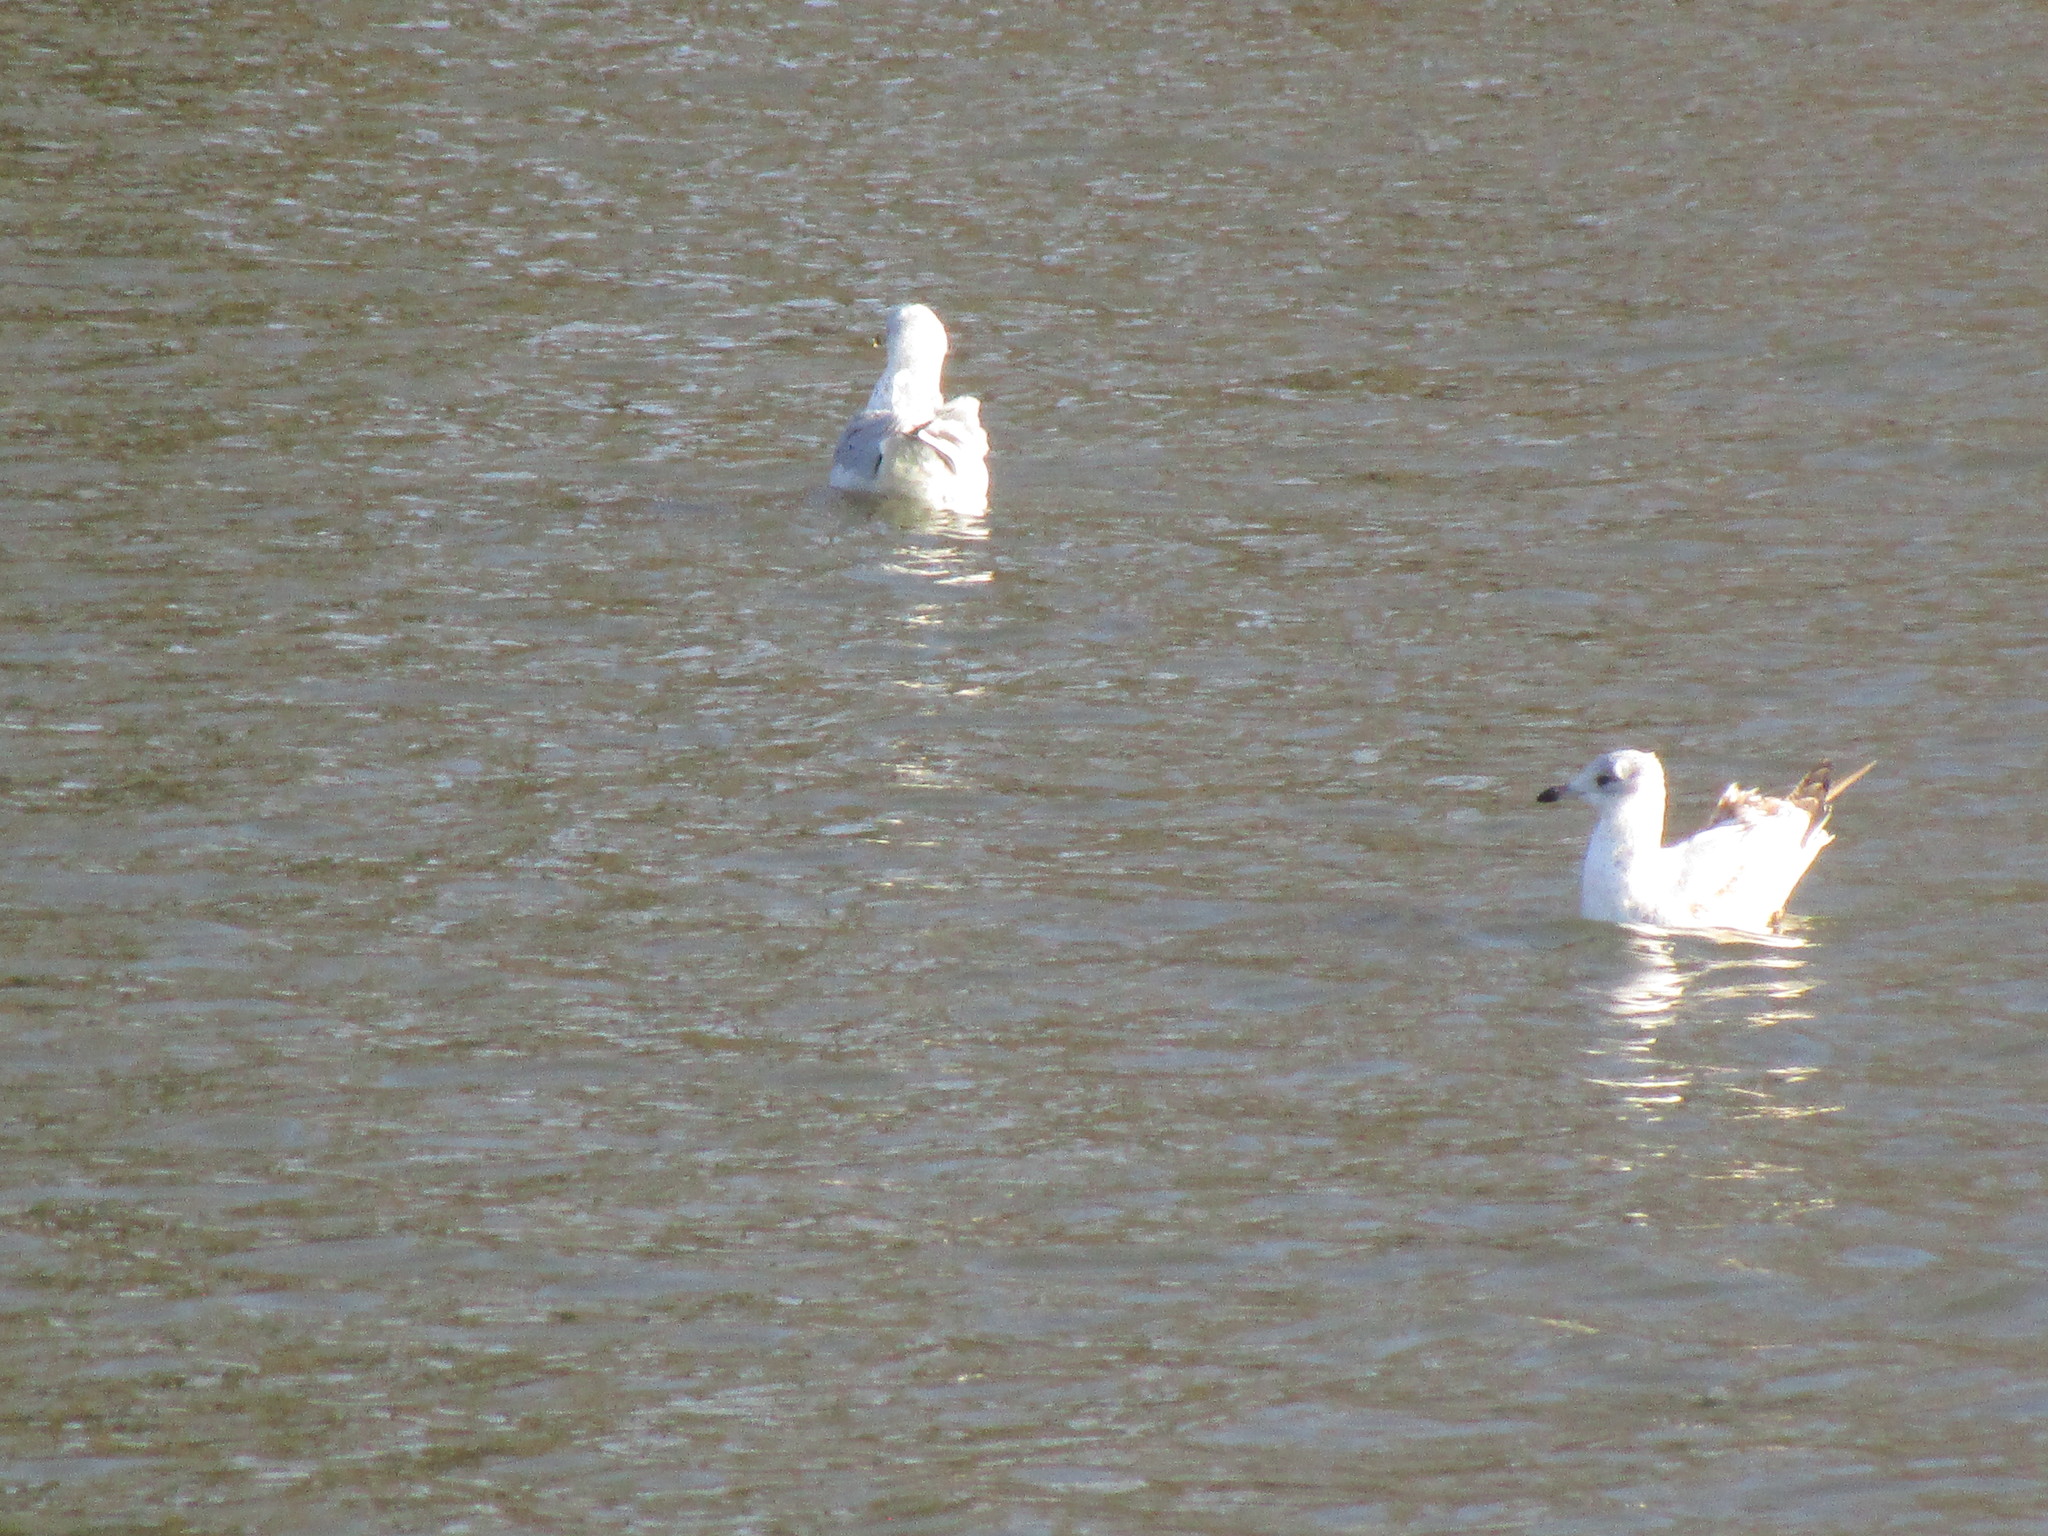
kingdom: Animalia
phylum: Chordata
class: Aves
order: Charadriiformes
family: Laridae
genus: Larus
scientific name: Larus delawarensis
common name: Ring-billed gull
